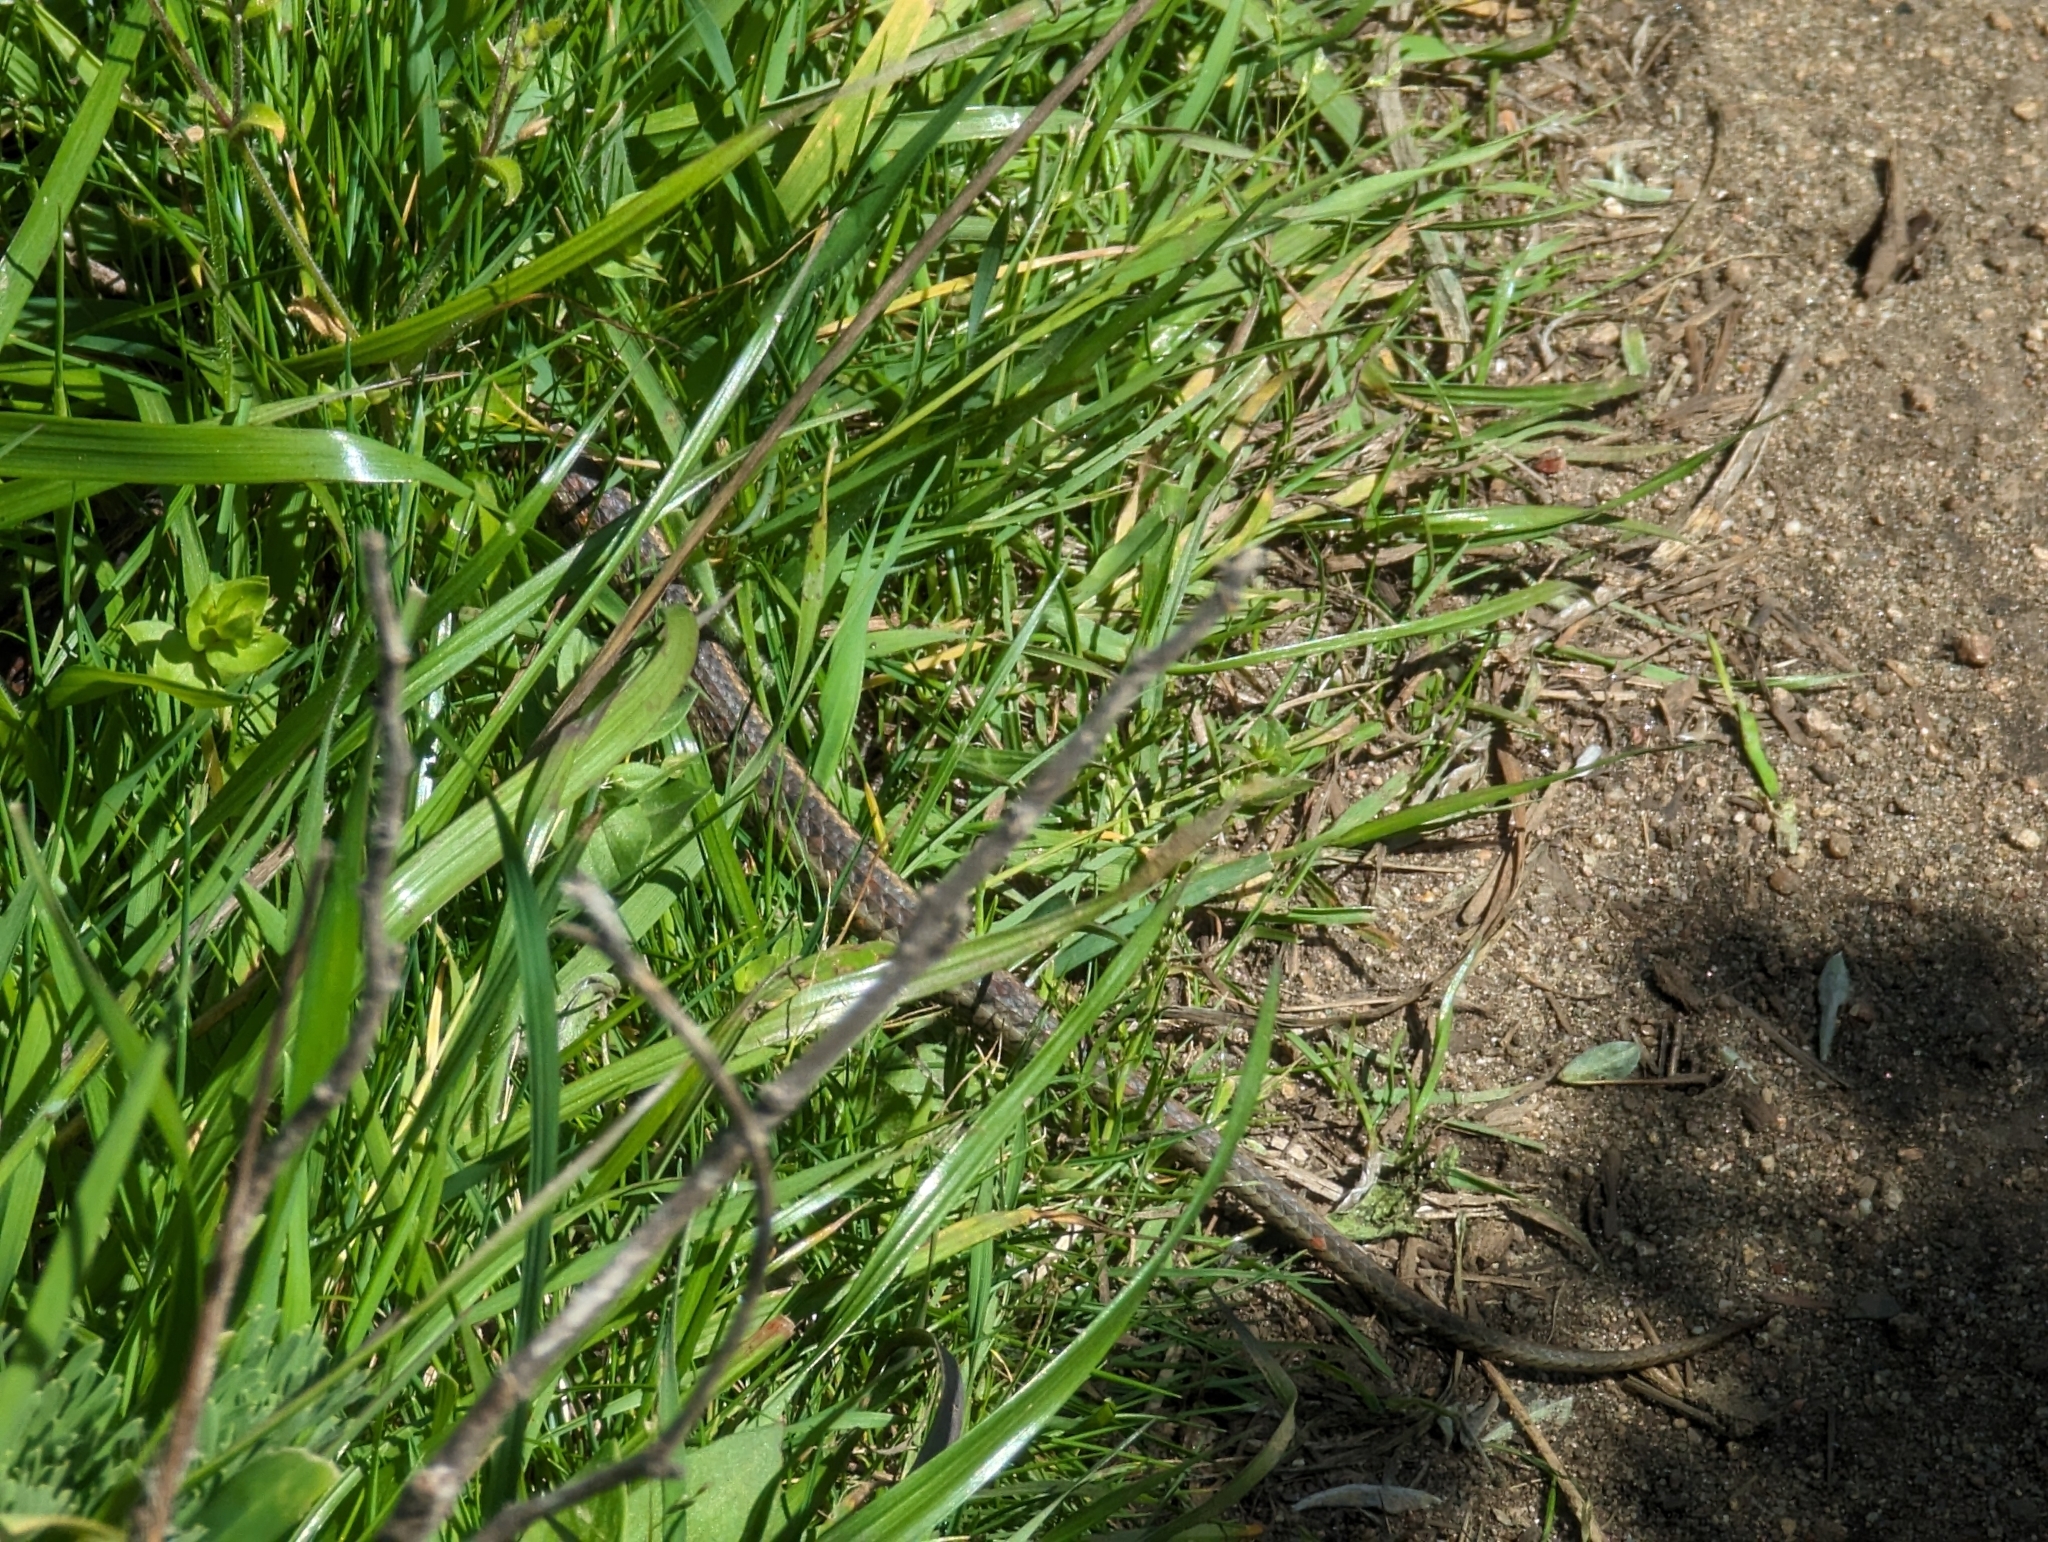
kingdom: Animalia
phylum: Chordata
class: Squamata
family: Colubridae
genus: Thamnophis
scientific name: Thamnophis elegans
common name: Western terrestrial garter snake
